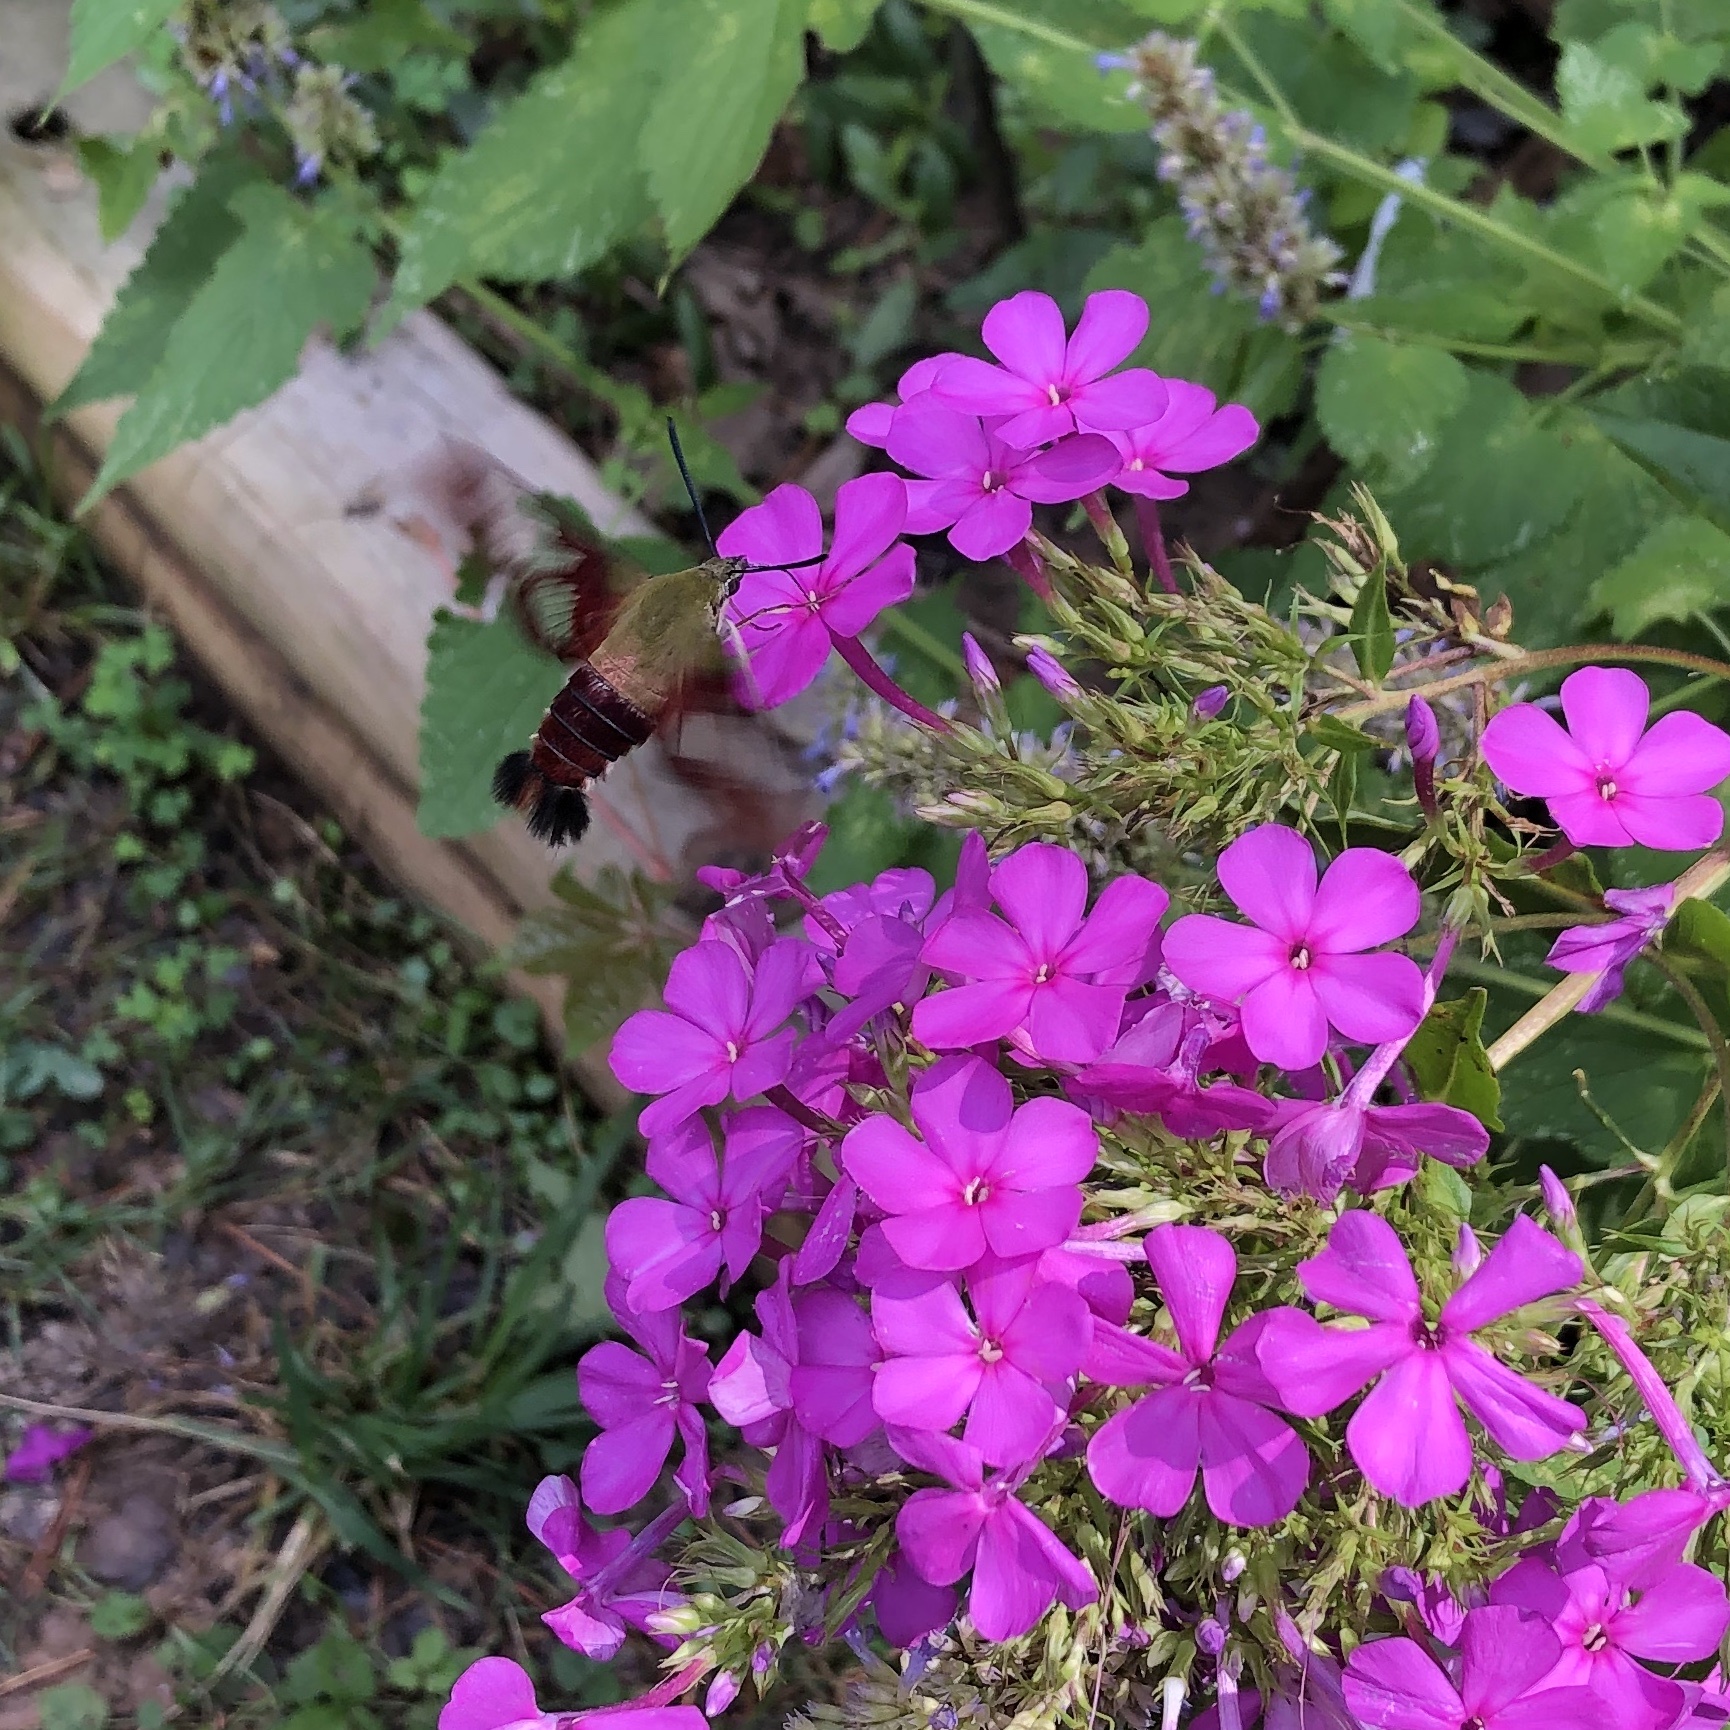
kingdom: Animalia
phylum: Arthropoda
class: Insecta
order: Lepidoptera
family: Sphingidae
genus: Hemaris
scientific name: Hemaris thysbe
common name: Common clear-wing
